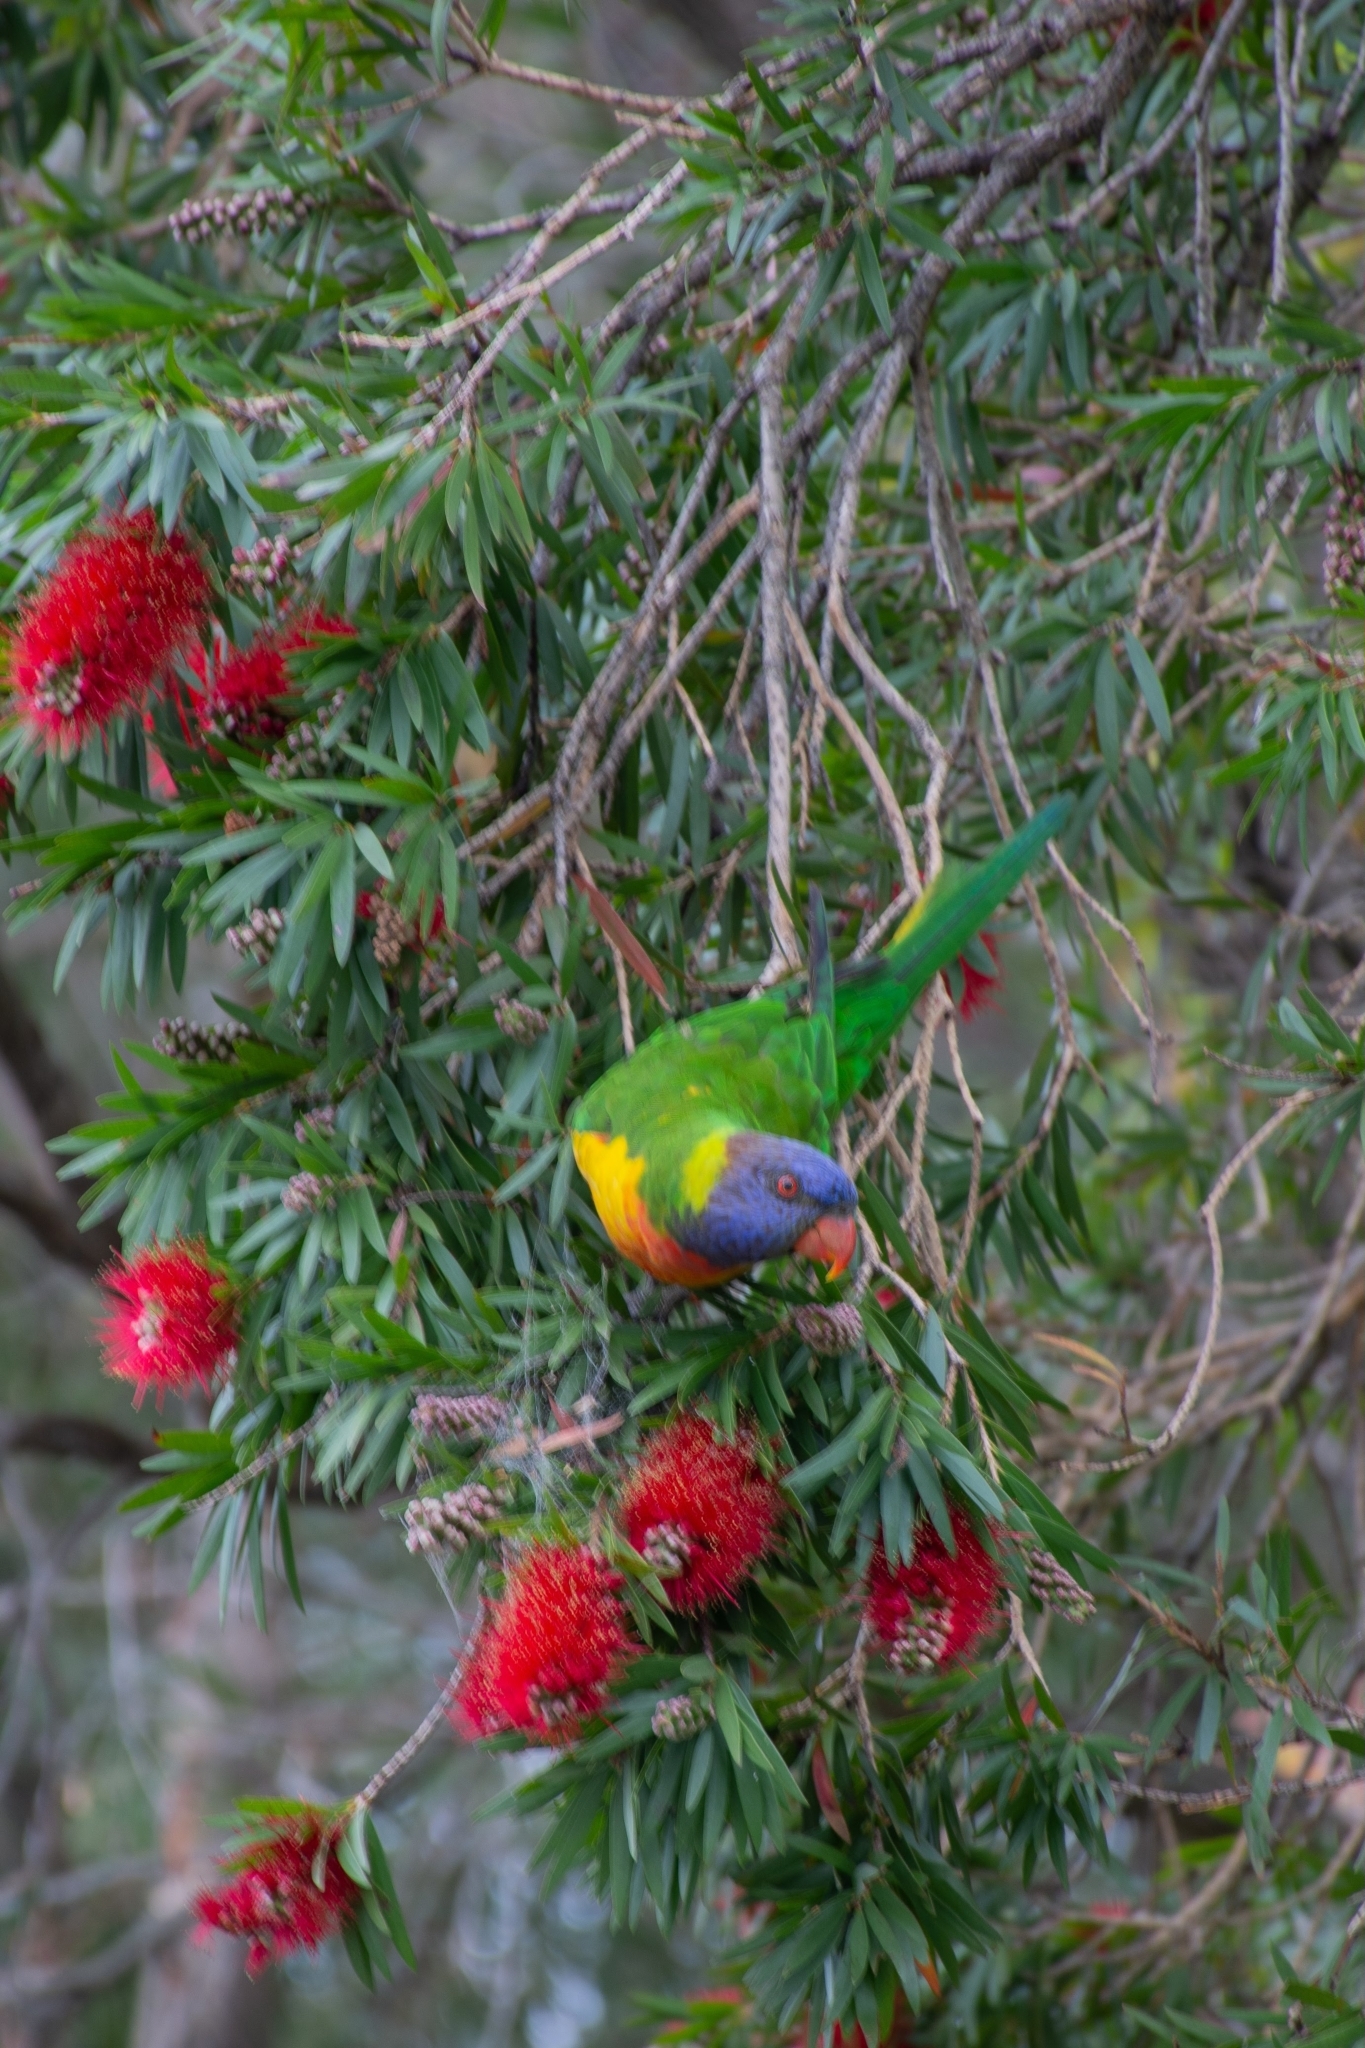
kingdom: Animalia
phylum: Chordata
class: Aves
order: Psittaciformes
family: Psittacidae
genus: Trichoglossus
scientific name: Trichoglossus haematodus
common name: Coconut lorikeet
